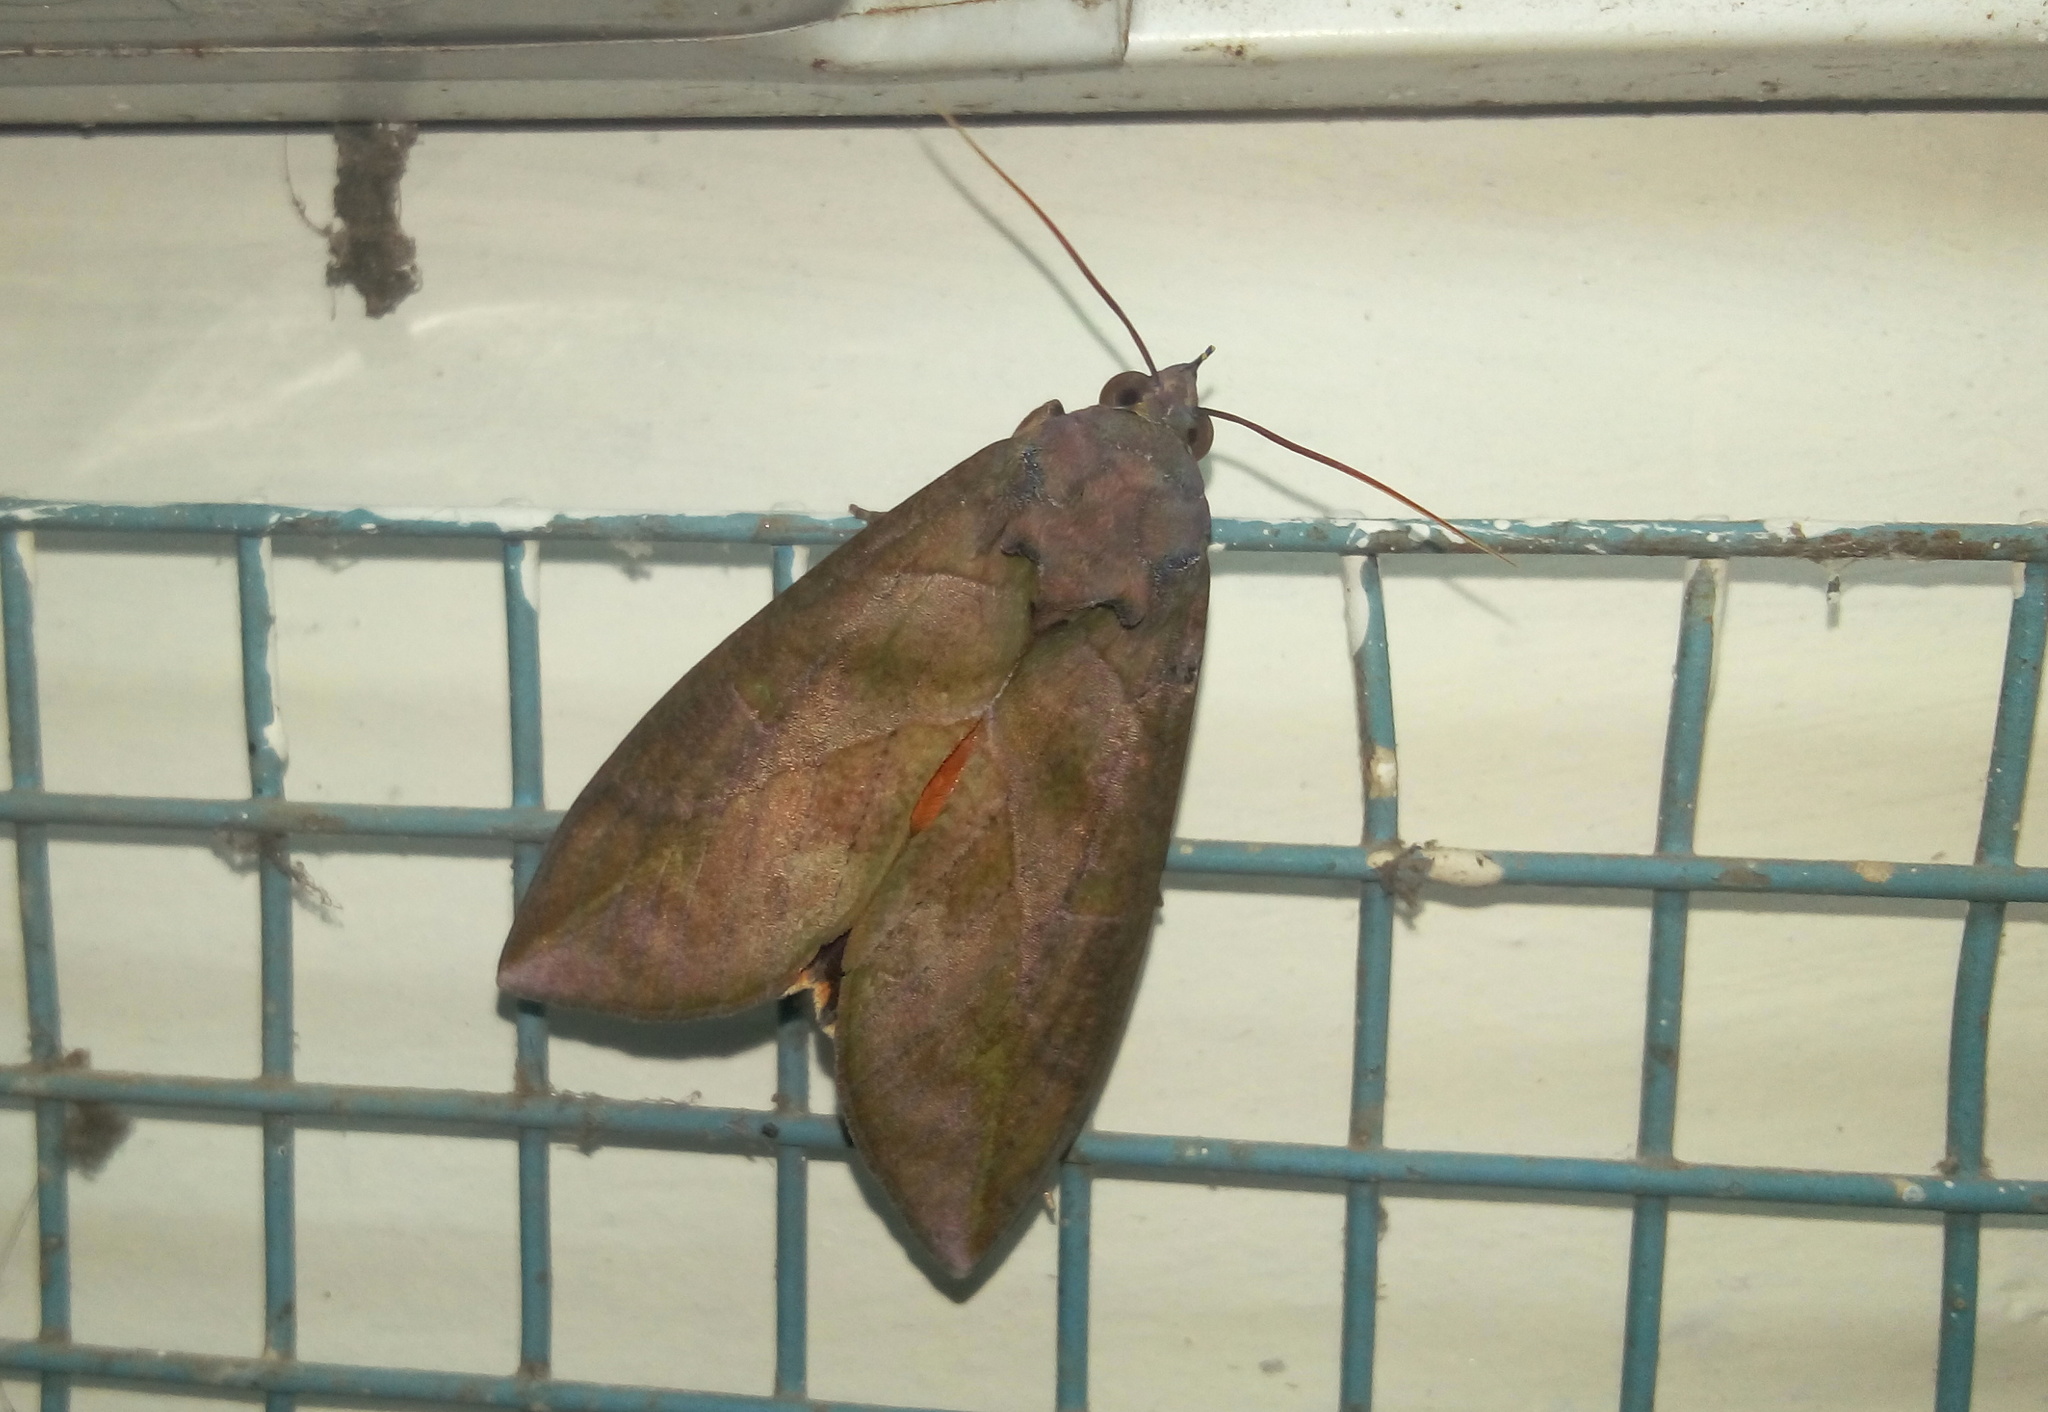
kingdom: Animalia
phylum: Arthropoda
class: Insecta
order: Lepidoptera
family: Erebidae
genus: Eudocima
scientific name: Eudocima phalonia
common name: Wasp
